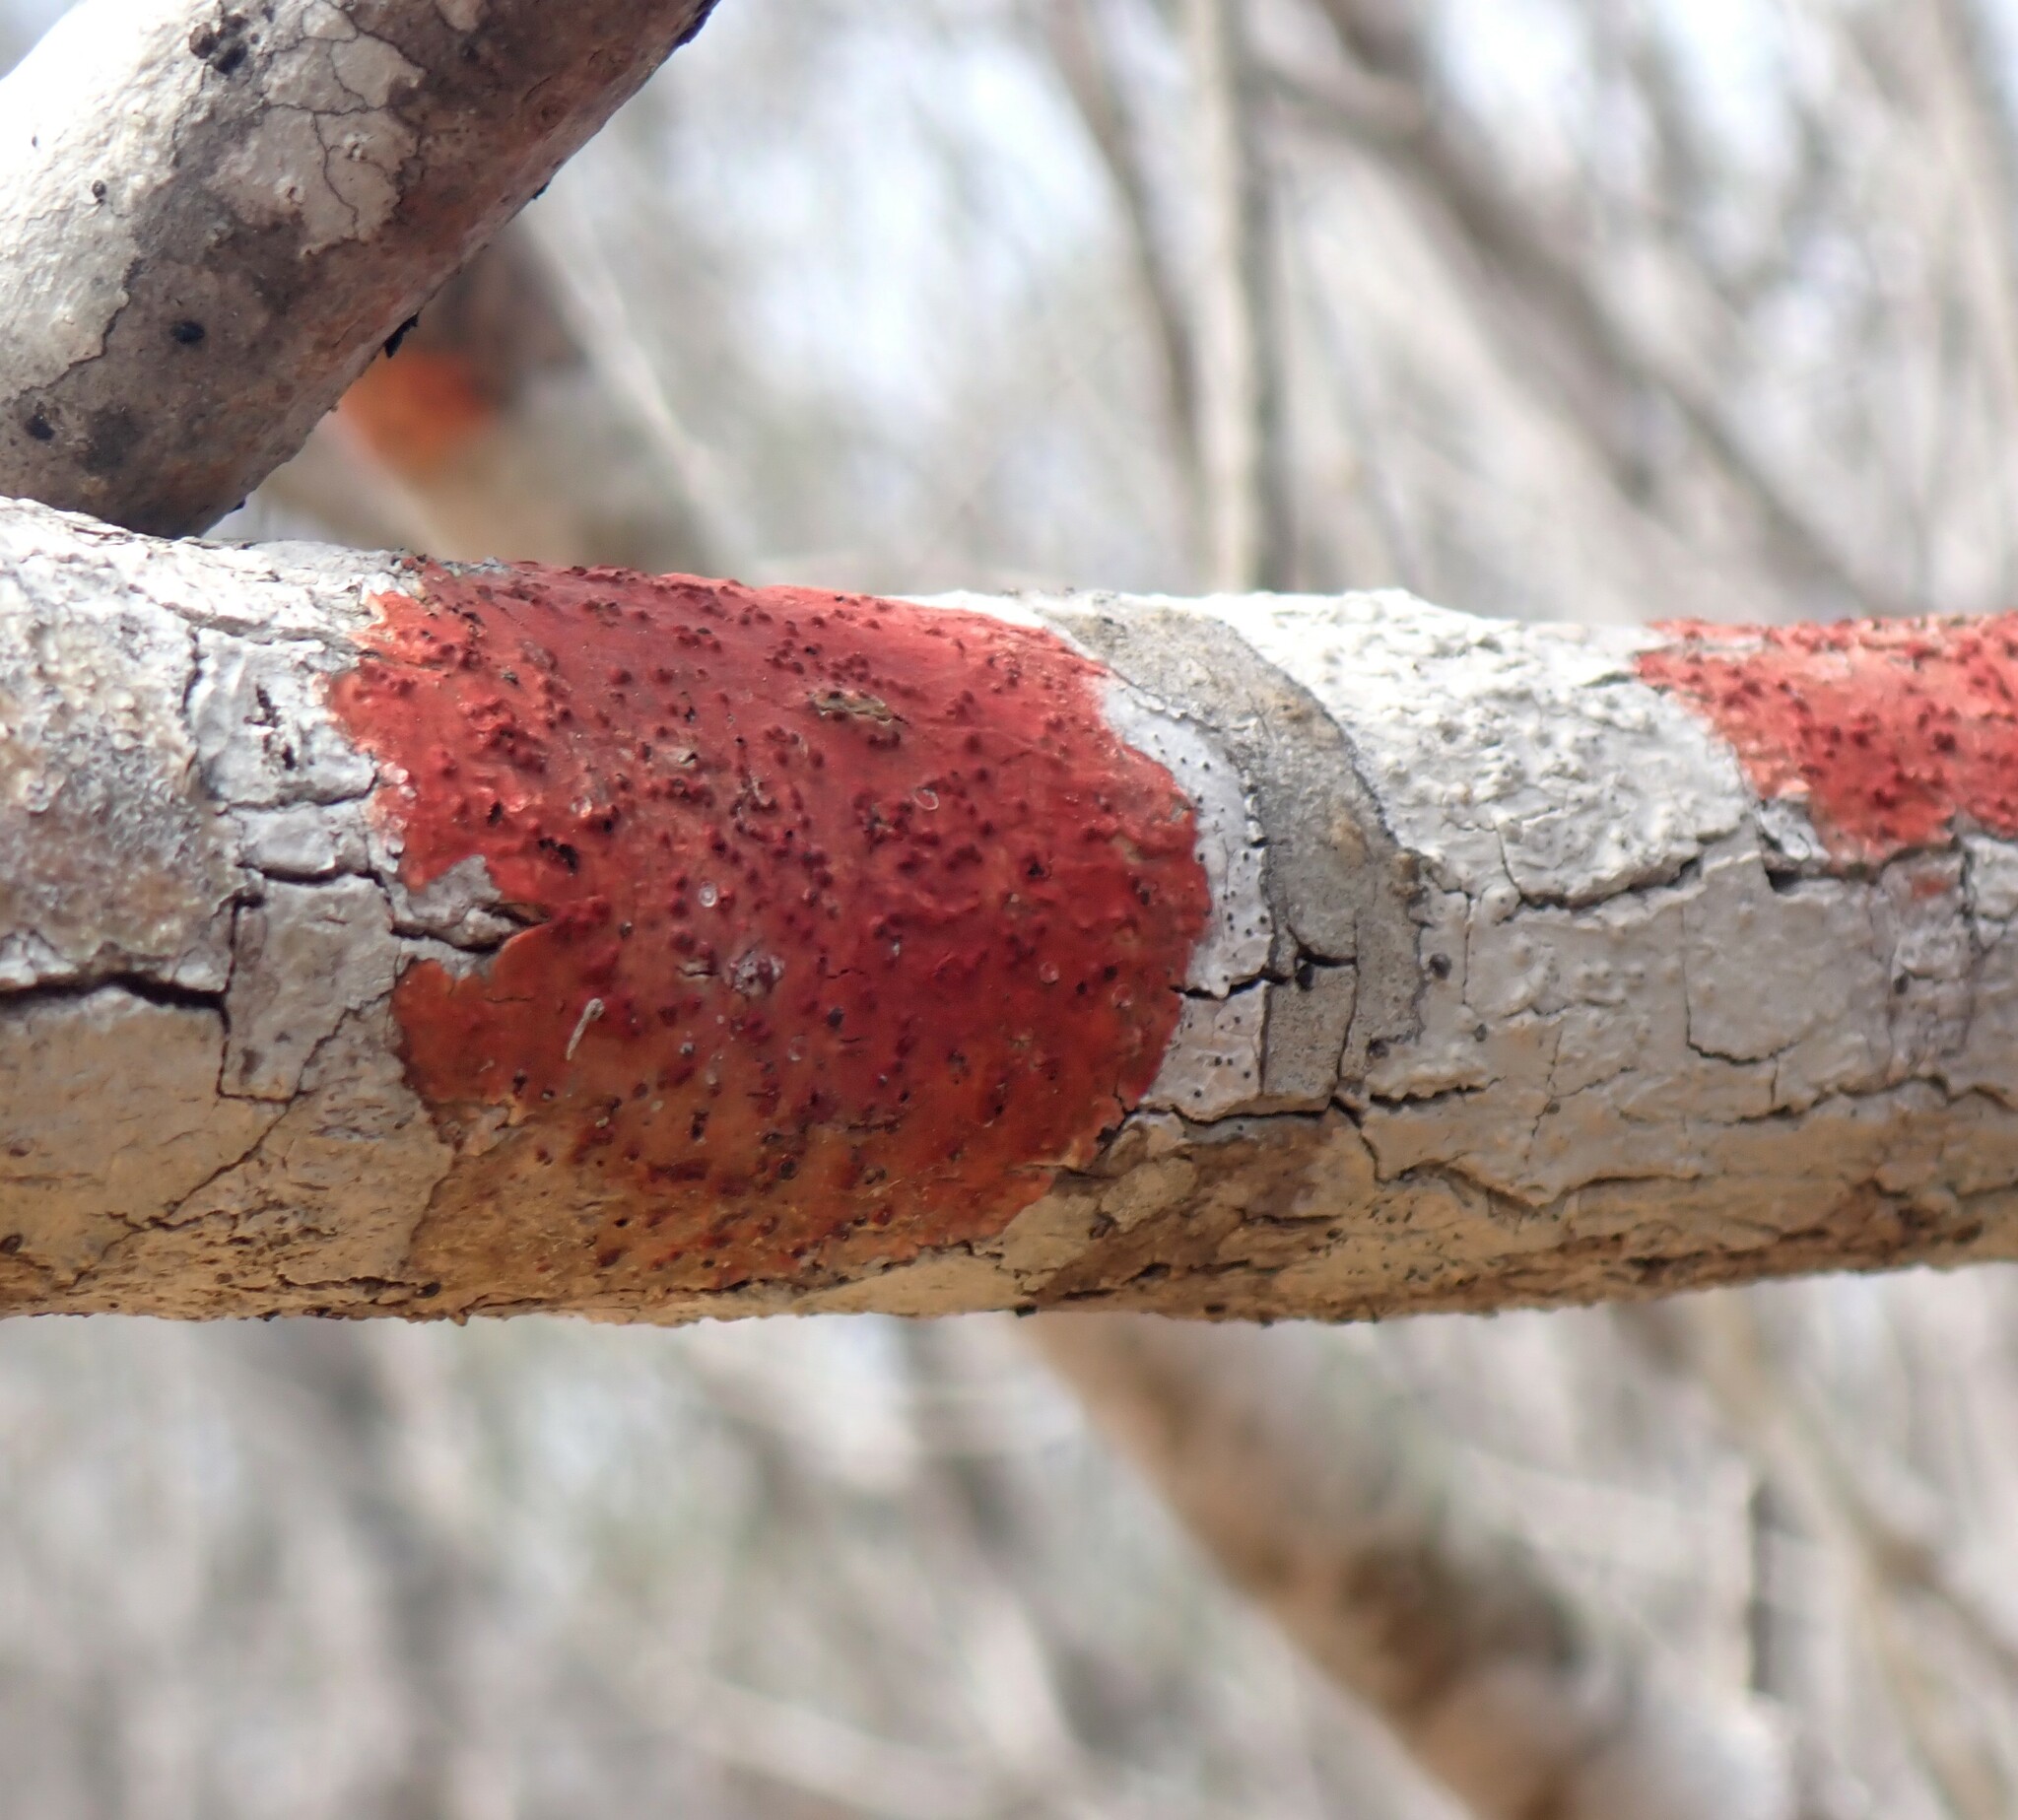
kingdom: Fungi
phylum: Ascomycota
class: Eurotiomycetes
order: Pyrenulales
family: Pyrenulaceae
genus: Pyrenula
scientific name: Pyrenula cruenta
